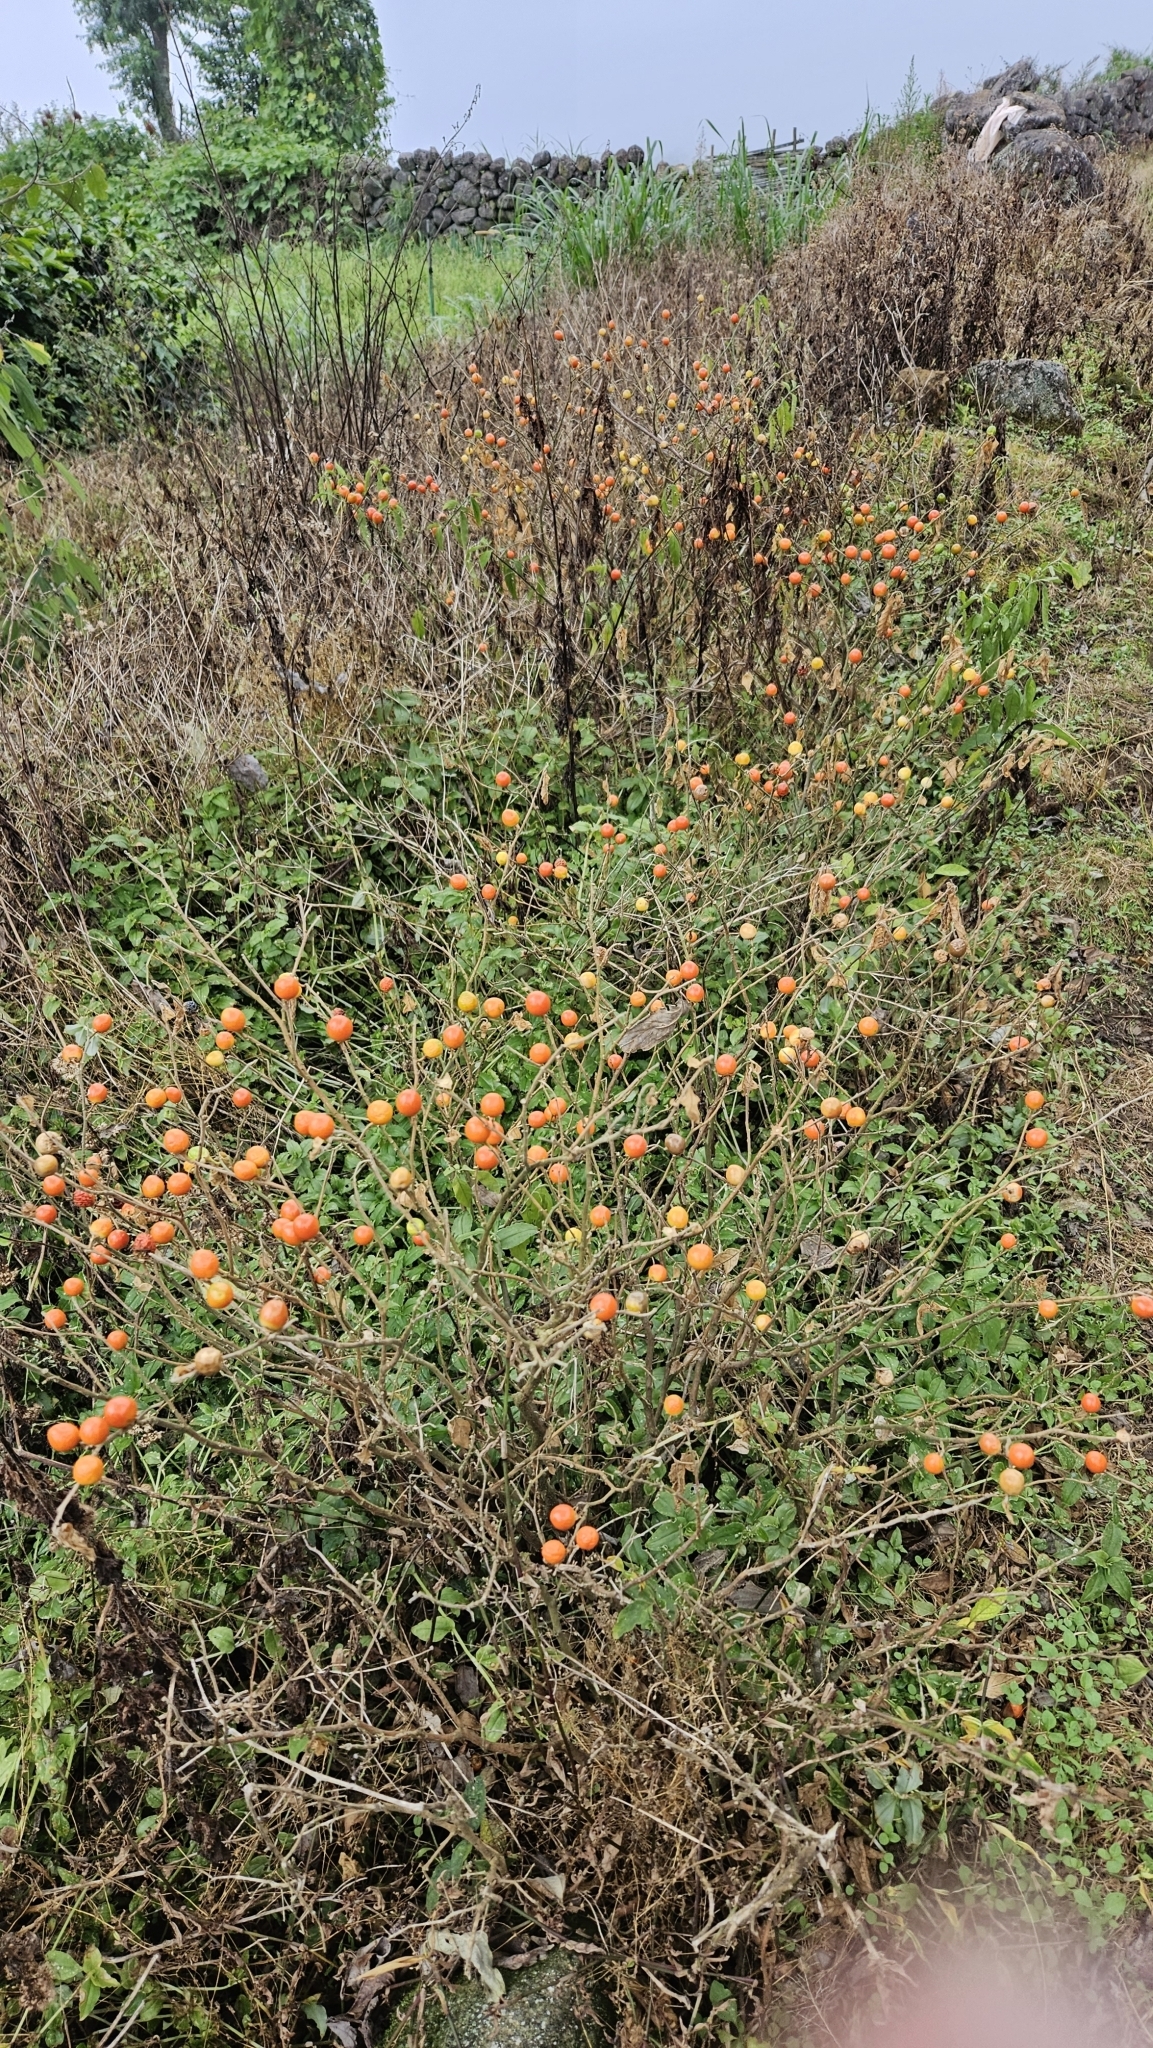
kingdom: Plantae
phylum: Tracheophyta
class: Magnoliopsida
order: Solanales
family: Solanaceae
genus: Solanum
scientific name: Solanum pseudocapsicum
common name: Jerusalem cherry
